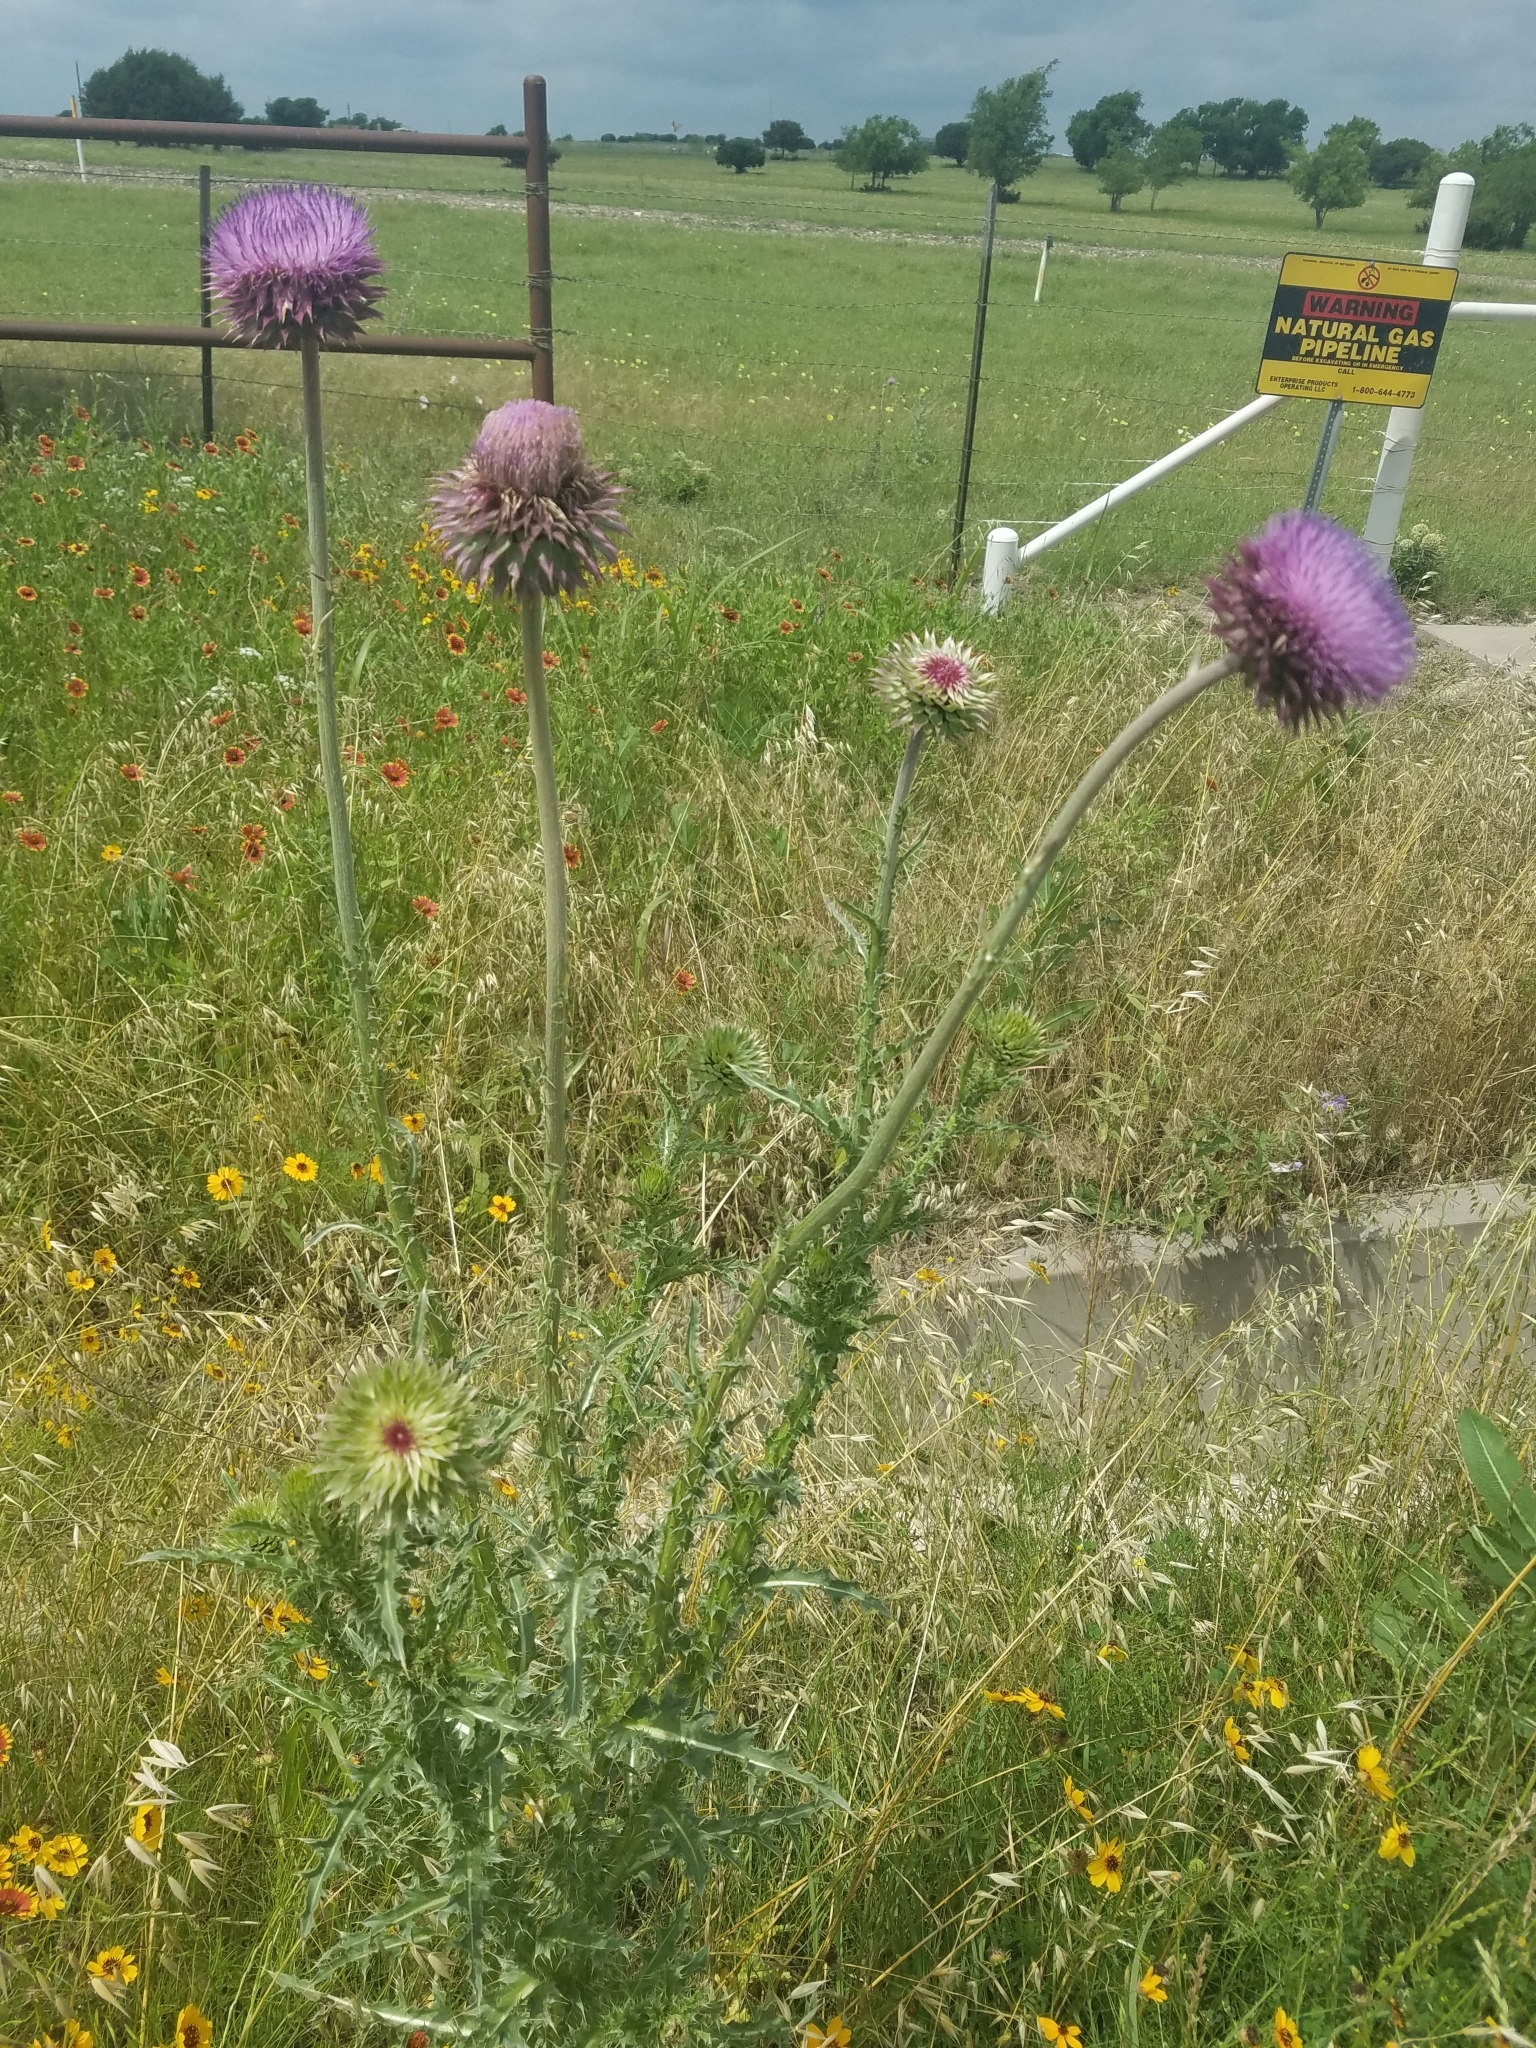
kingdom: Plantae
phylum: Tracheophyta
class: Magnoliopsida
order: Asterales
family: Asteraceae
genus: Carduus
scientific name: Carduus nutans
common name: Musk thistle
